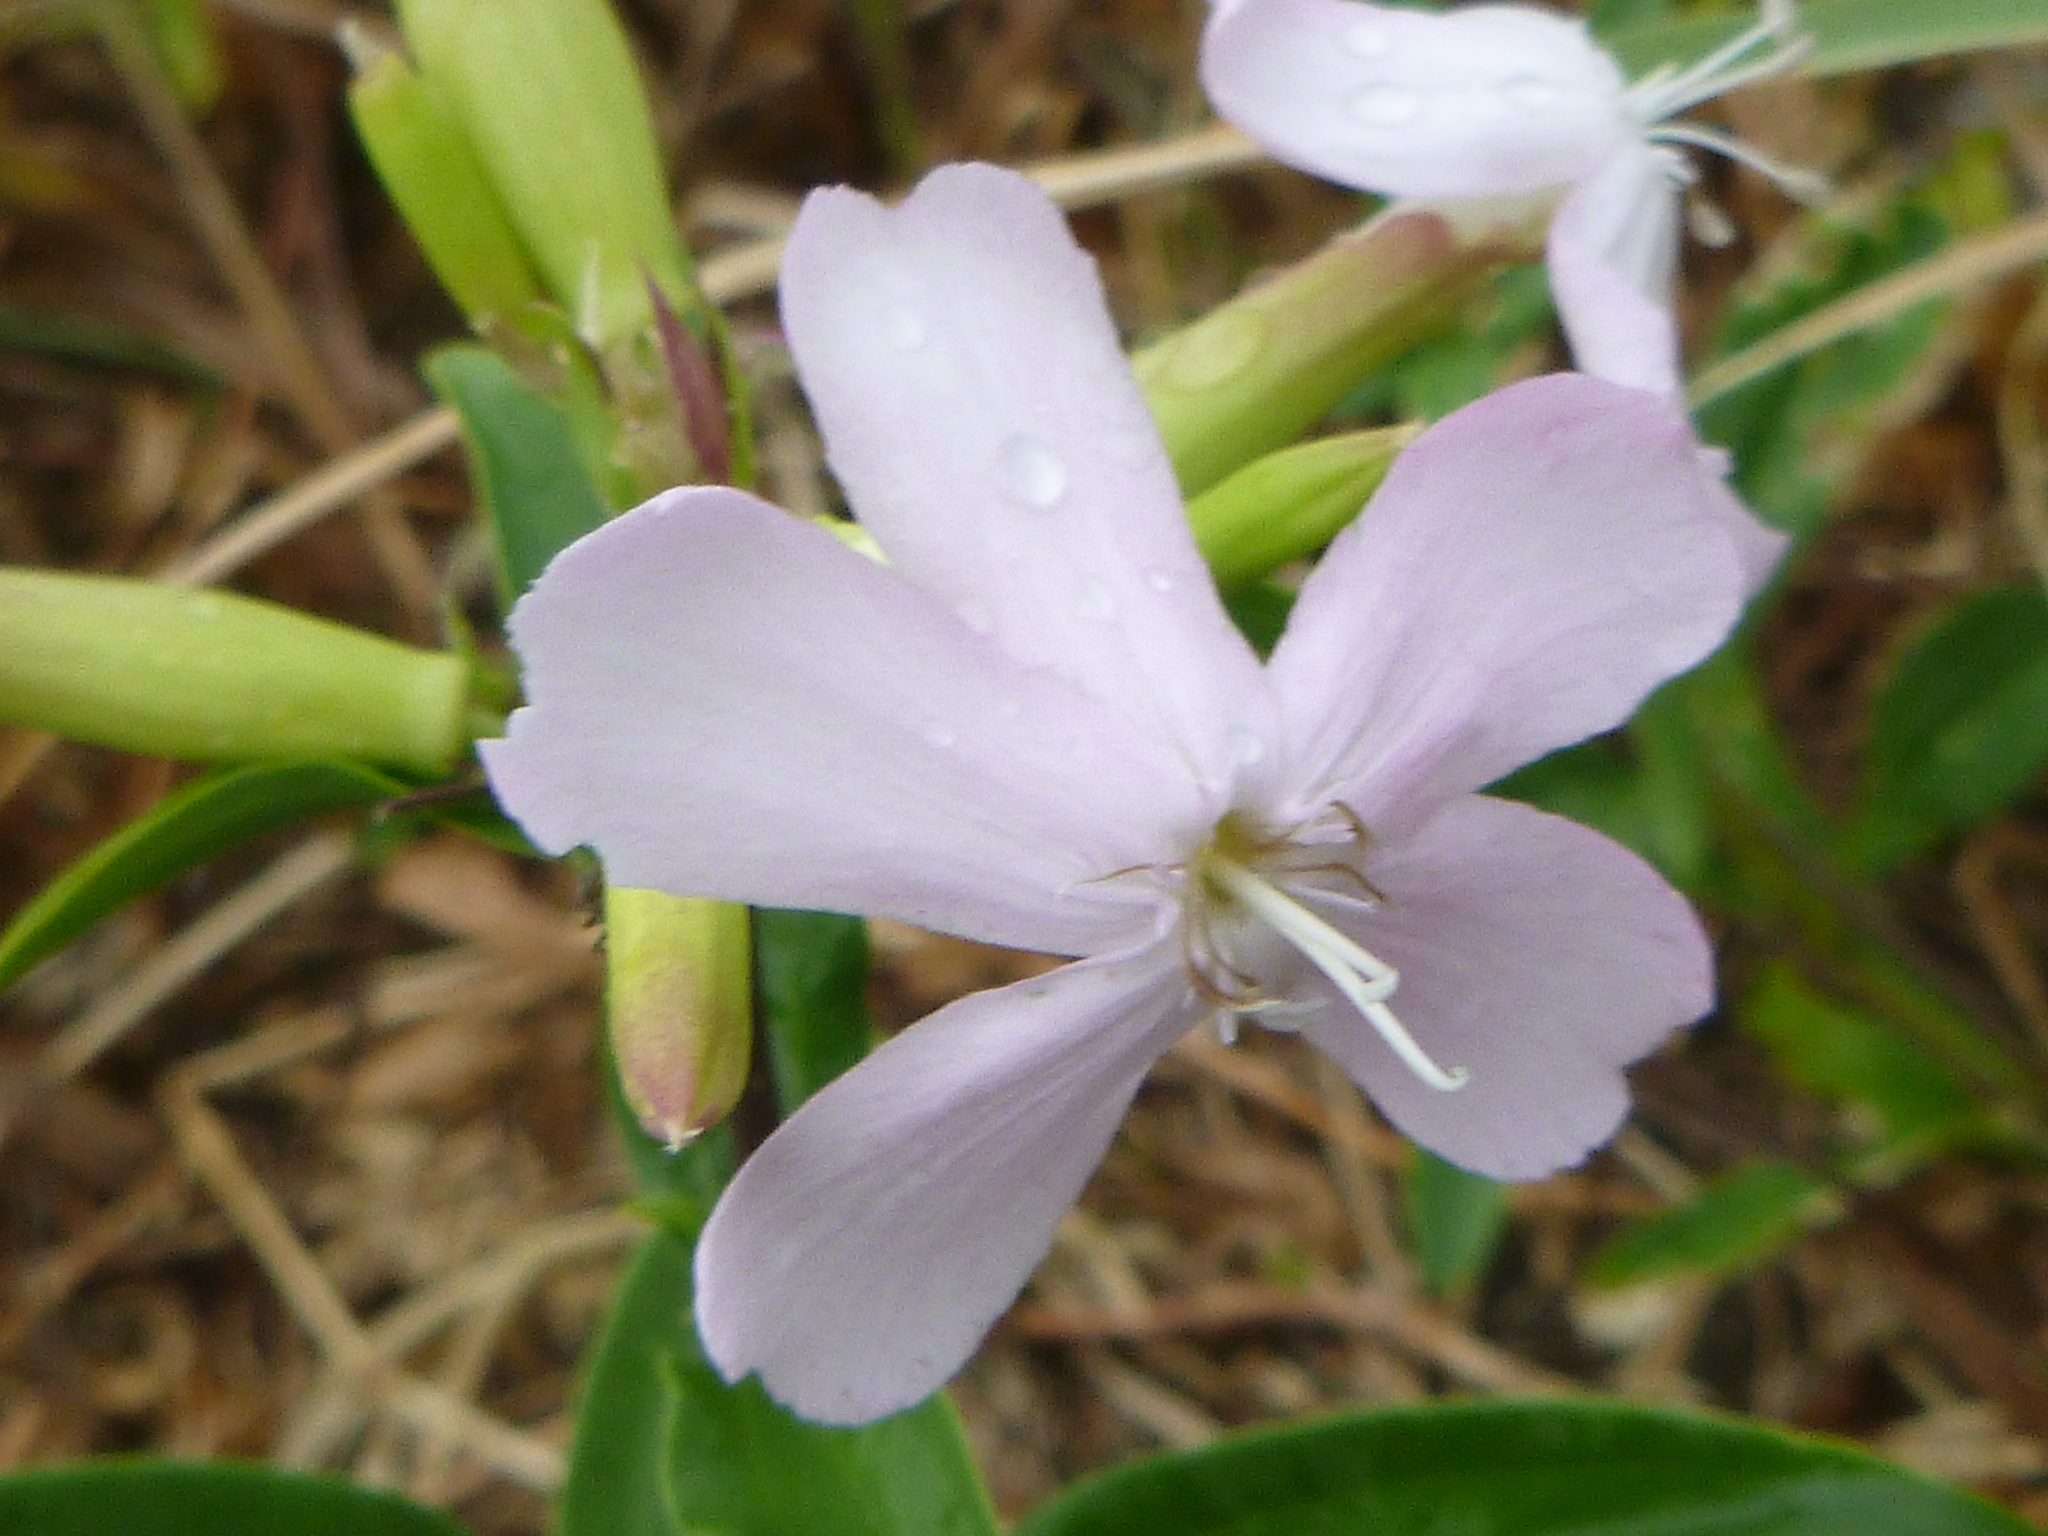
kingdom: Plantae
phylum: Tracheophyta
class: Magnoliopsida
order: Caryophyllales
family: Caryophyllaceae
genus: Saponaria
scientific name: Saponaria officinalis
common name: Soapwort
